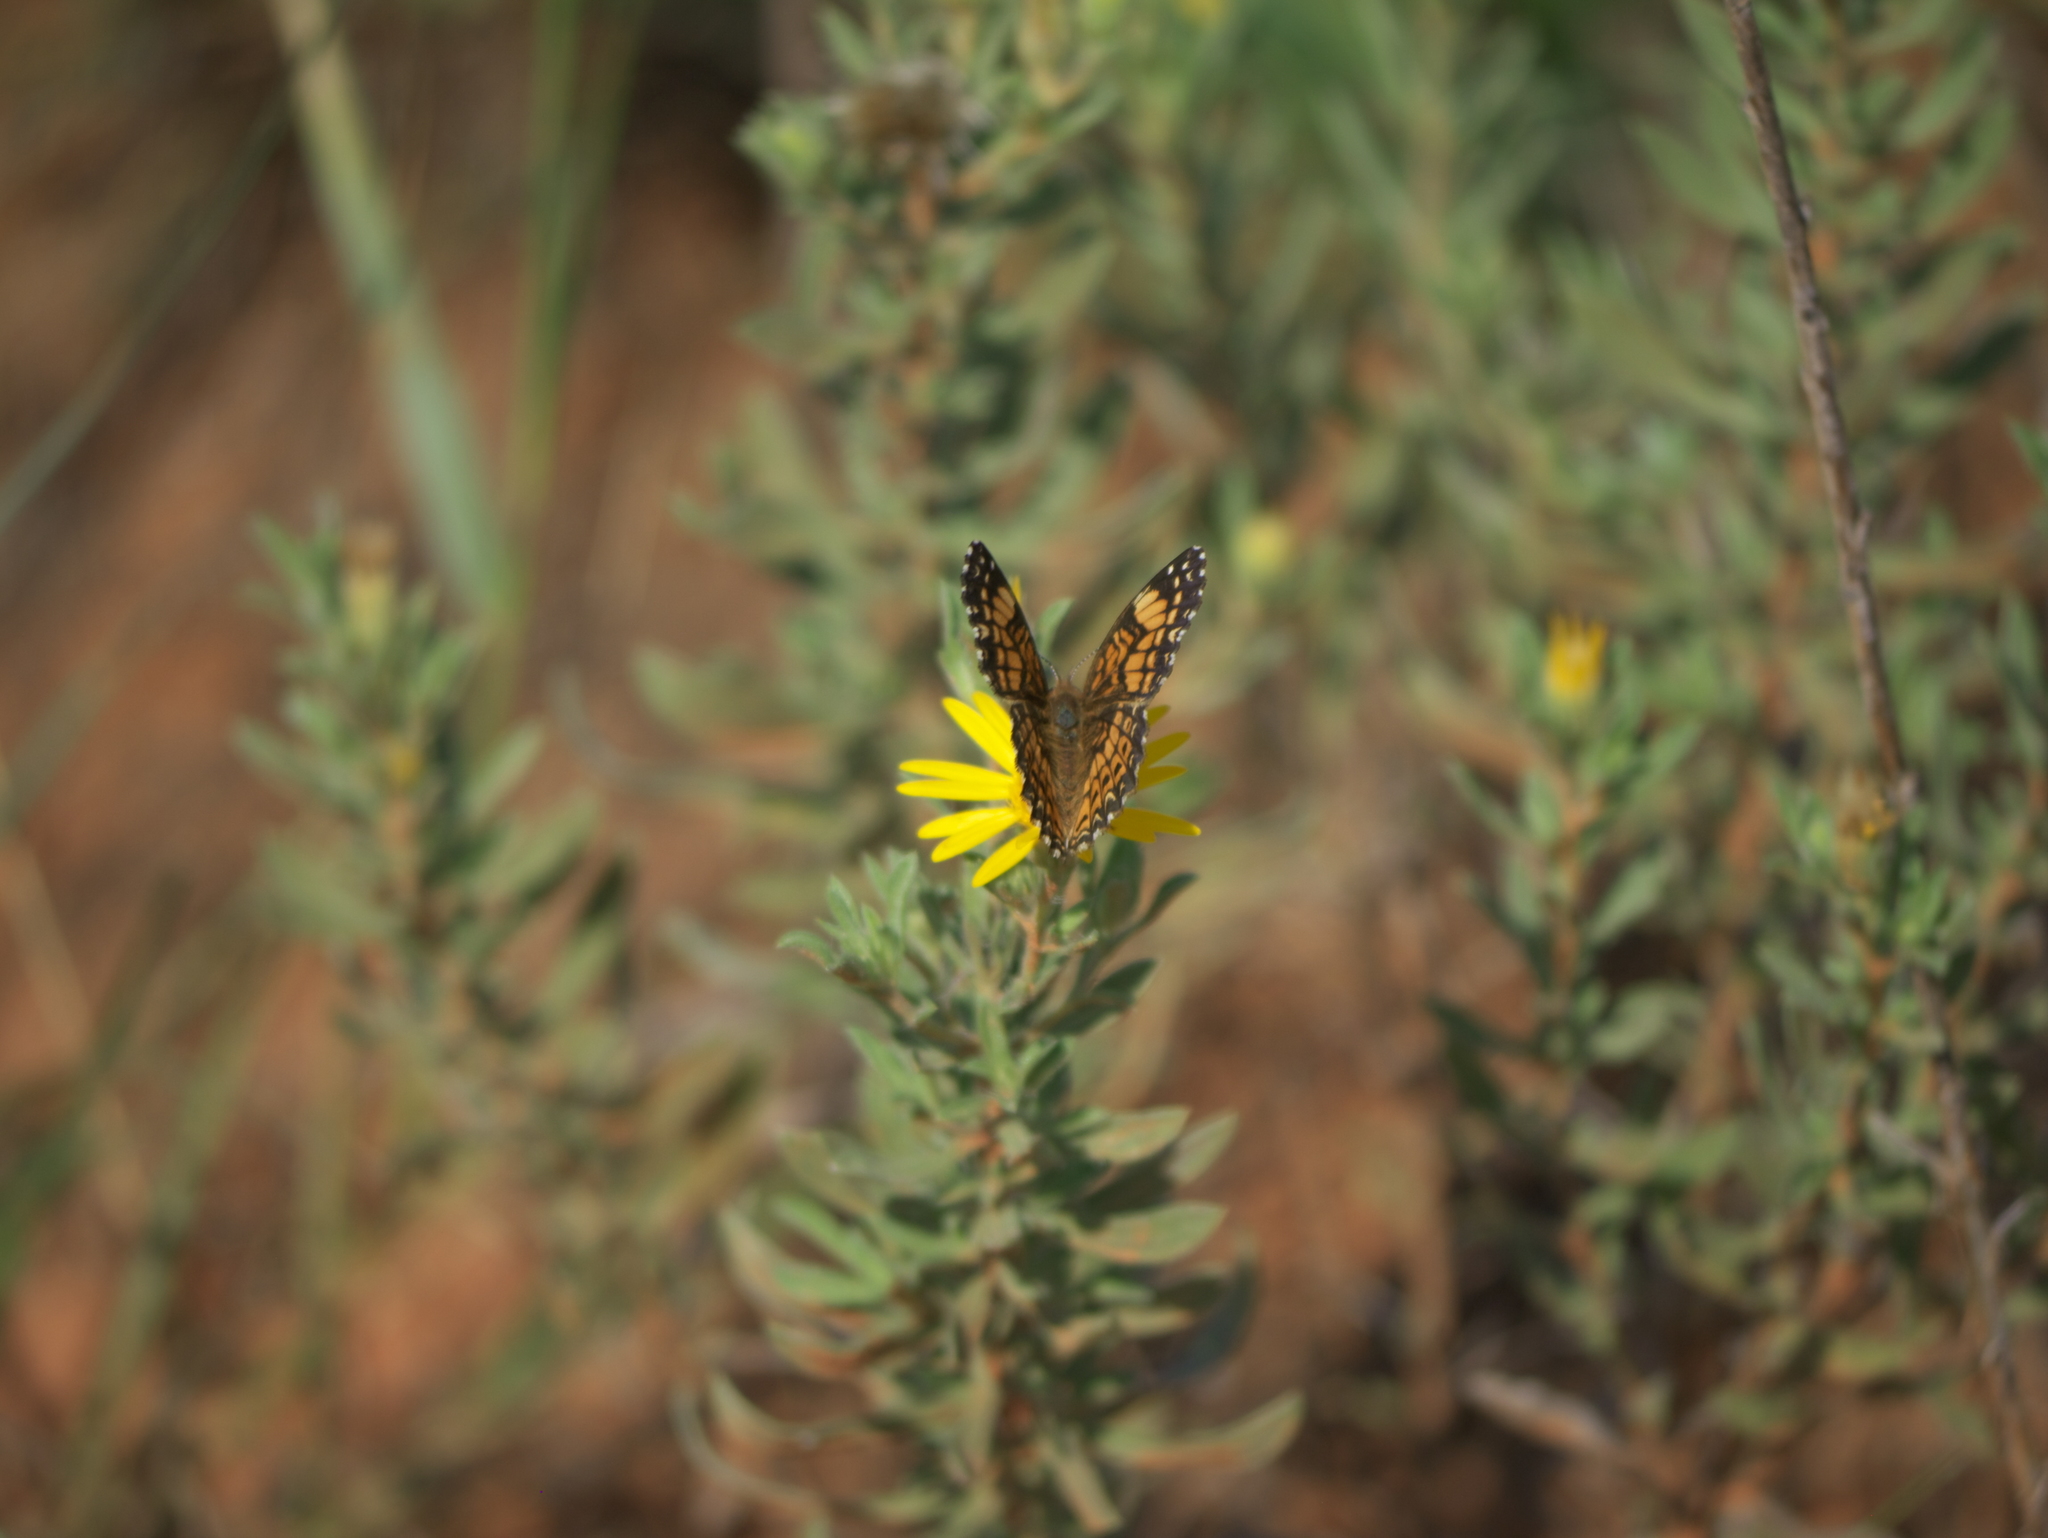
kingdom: Animalia
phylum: Arthropoda
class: Insecta
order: Lepidoptera
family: Nymphalidae
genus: Chlosyne
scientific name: Chlosyne gorgone
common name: Gorgone checkerspot
